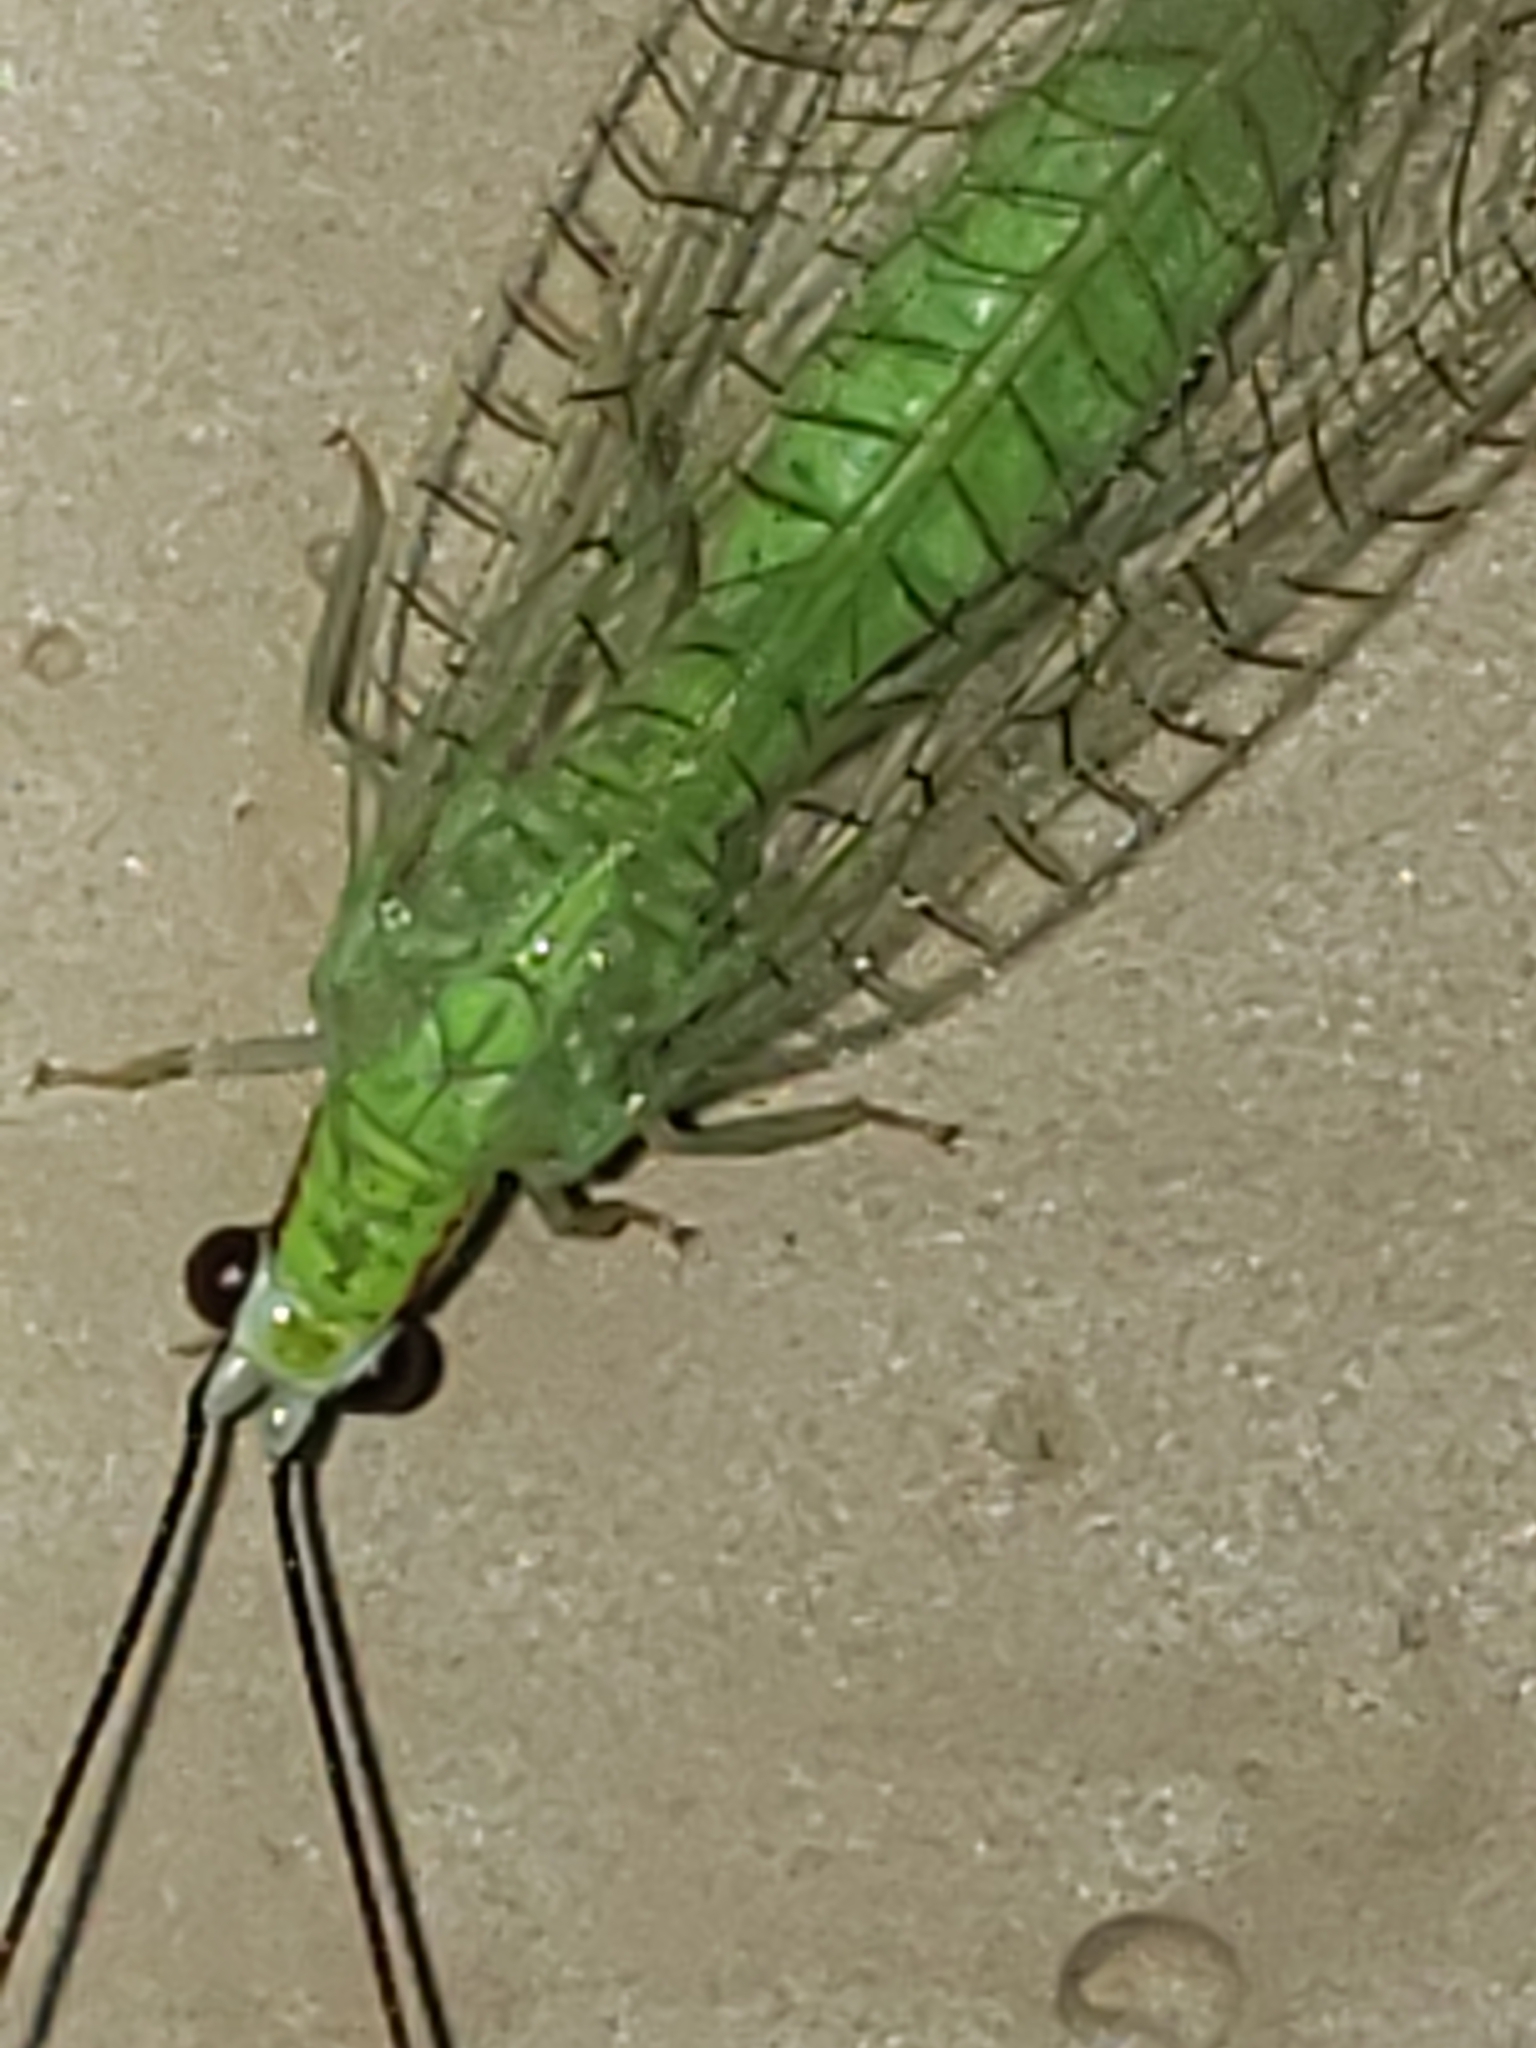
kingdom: Animalia
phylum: Arthropoda
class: Insecta
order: Neuroptera
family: Chrysopidae
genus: Ceraeochrysa
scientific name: Ceraeochrysa lineaticornis
